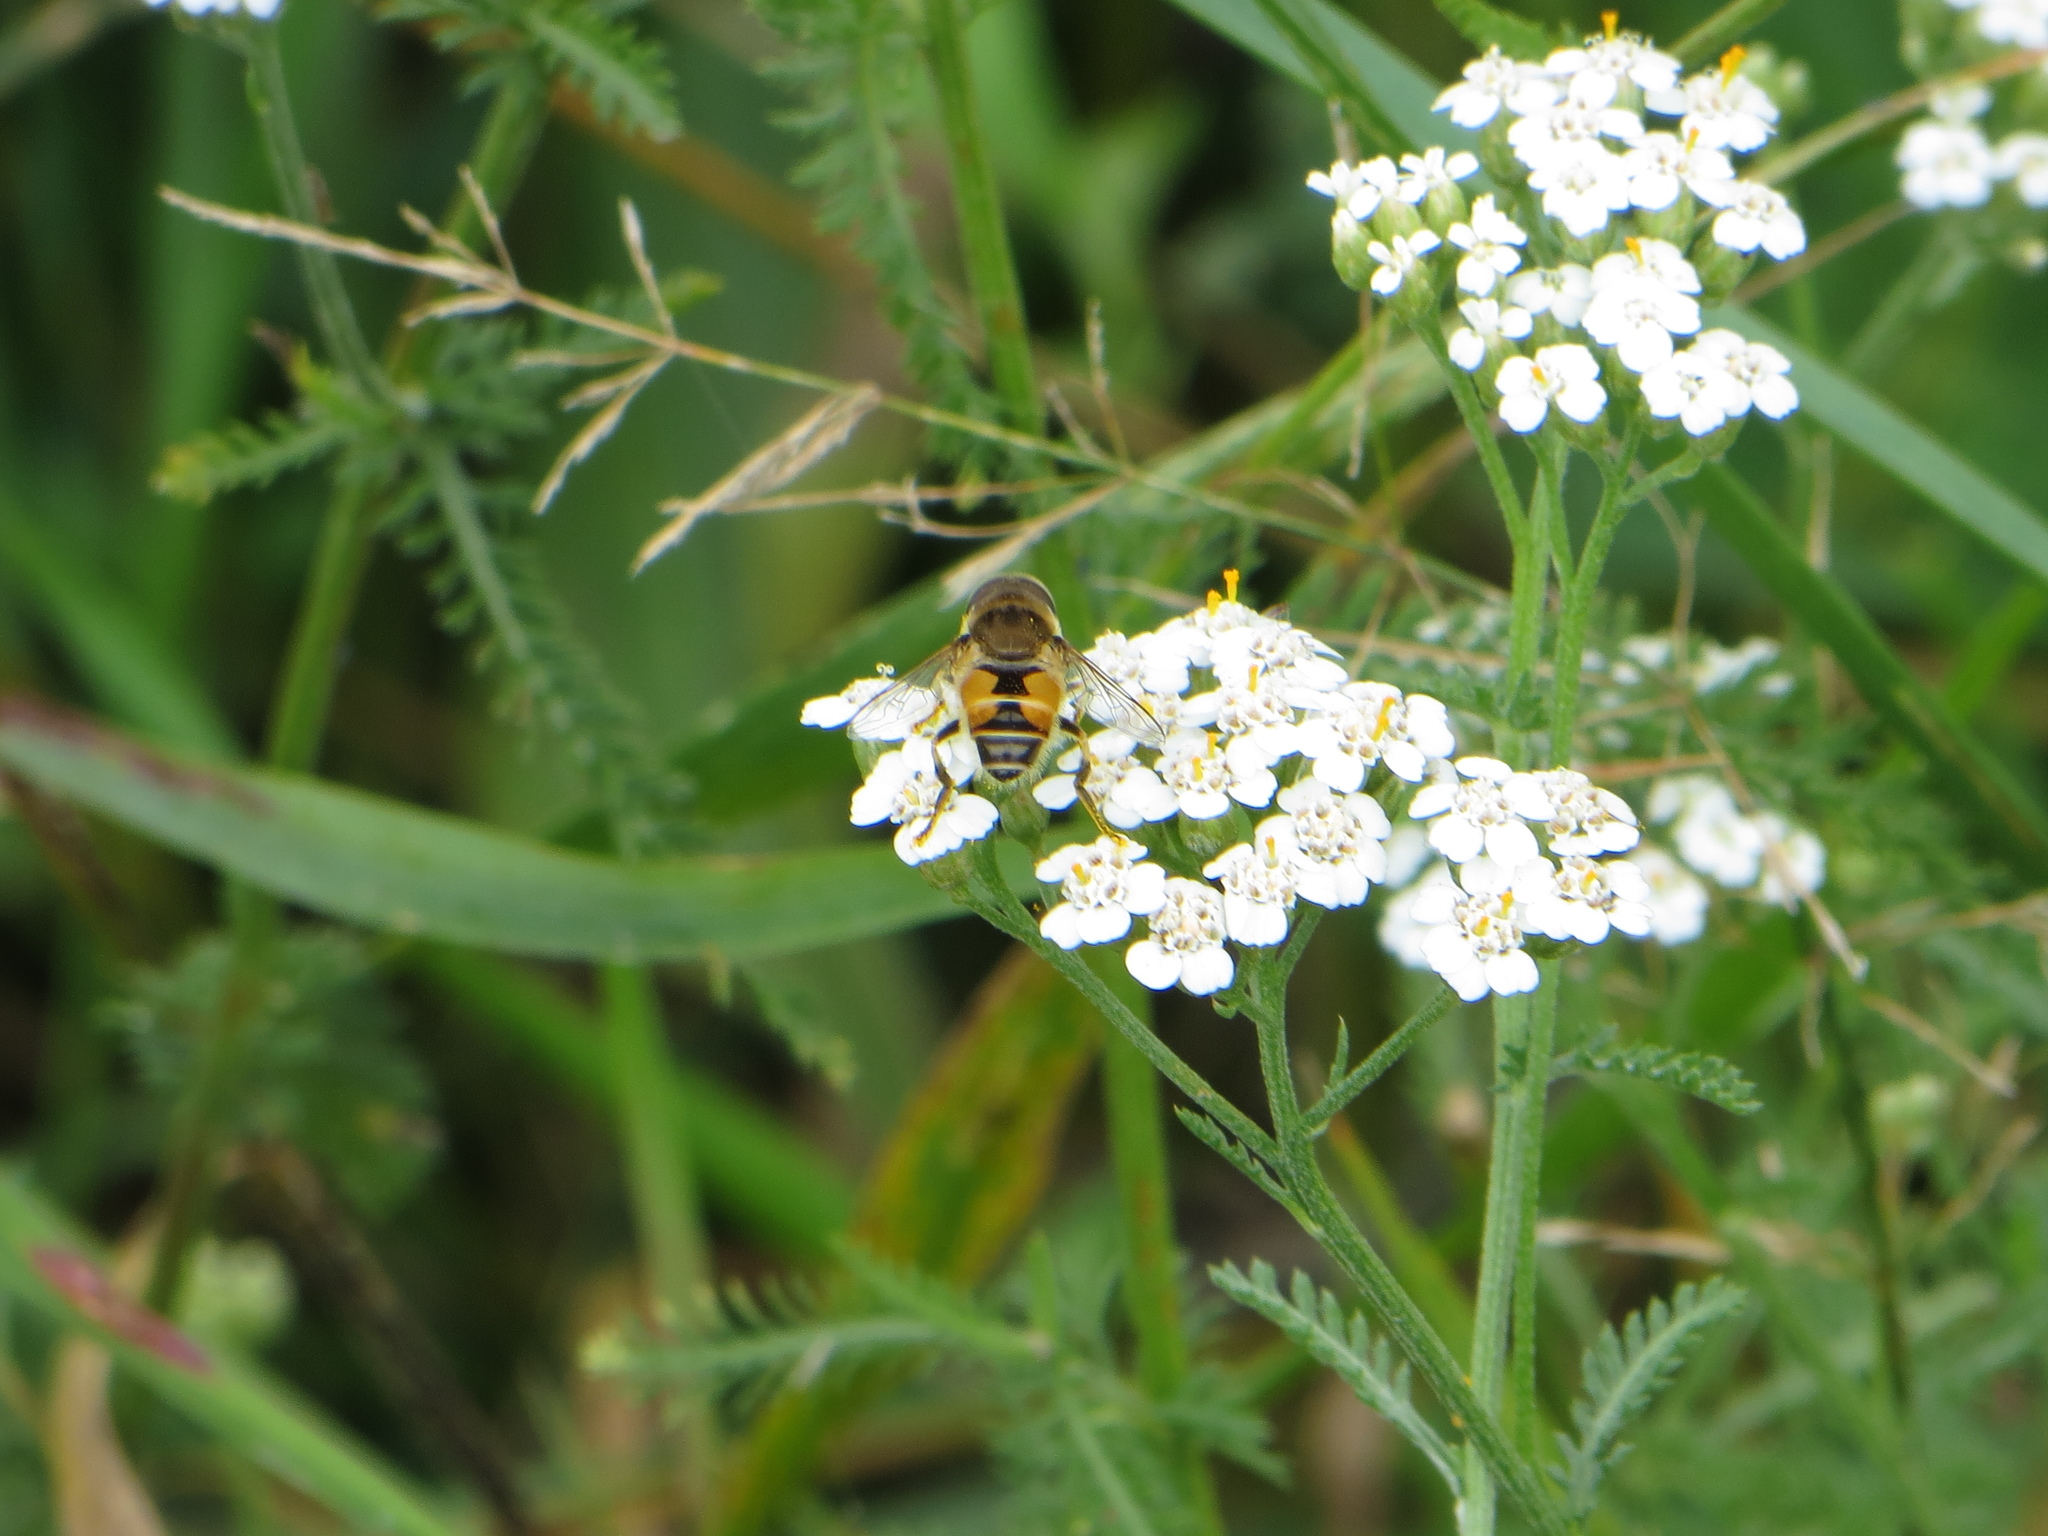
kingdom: Animalia
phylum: Arthropoda
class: Insecta
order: Diptera
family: Syrphidae
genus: Eristalis
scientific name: Eristalis arbustorum
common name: Hover fly
